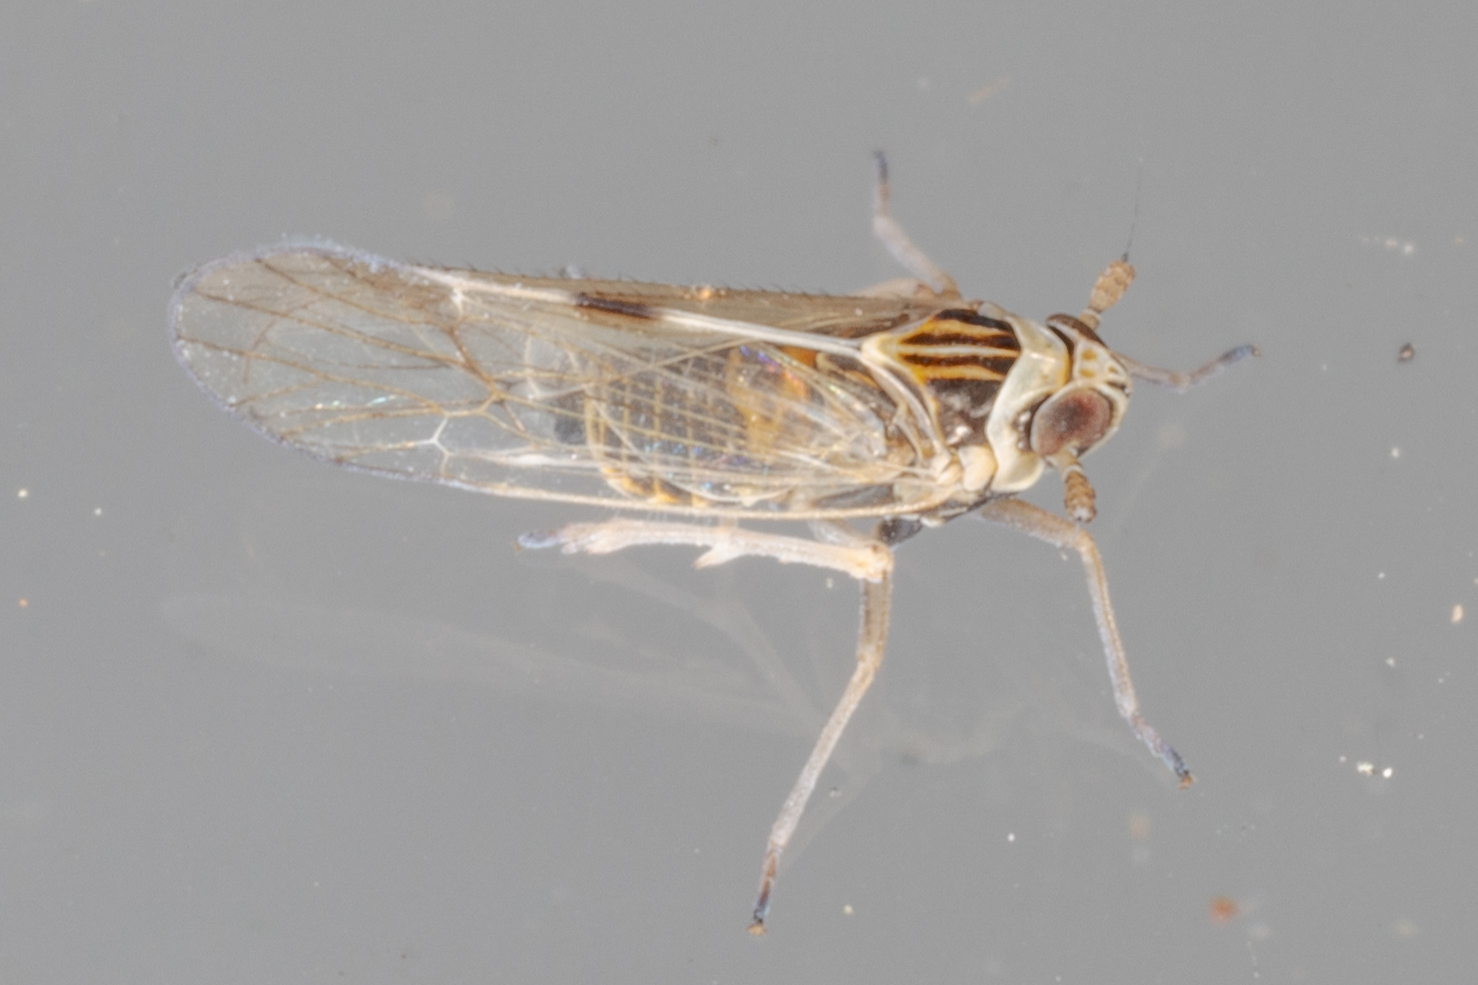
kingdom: Animalia
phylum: Arthropoda
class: Insecta
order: Hemiptera
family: Delphacidae
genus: Chionomus
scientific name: Chionomus
